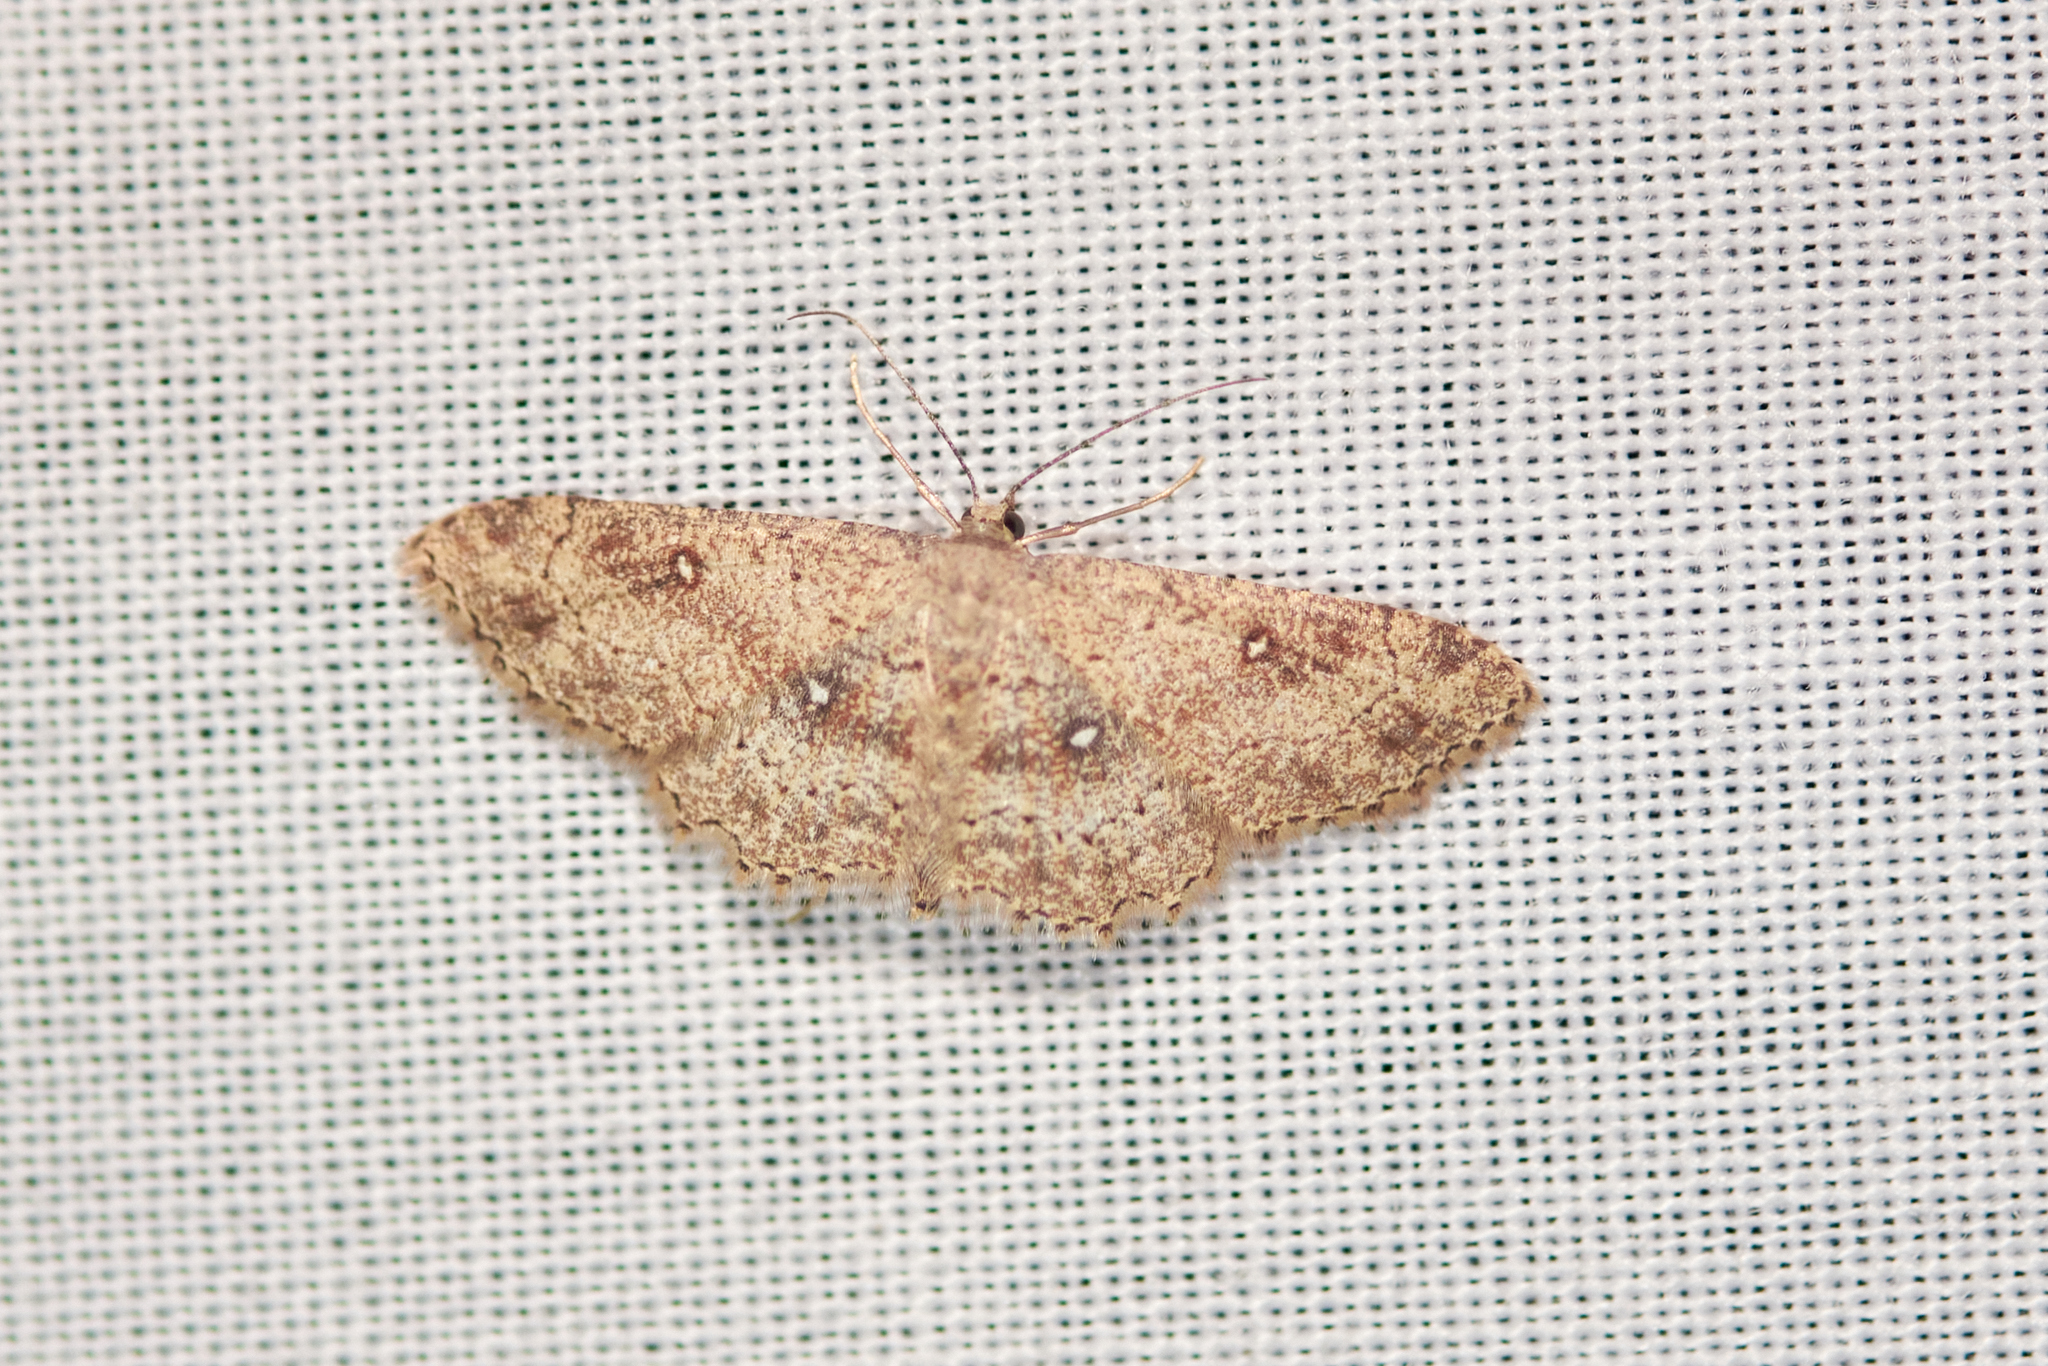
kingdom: Animalia
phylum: Arthropoda
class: Insecta
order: Lepidoptera
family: Geometridae
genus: Cyclophora
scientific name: Cyclophora nanaria
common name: Cankerworm
